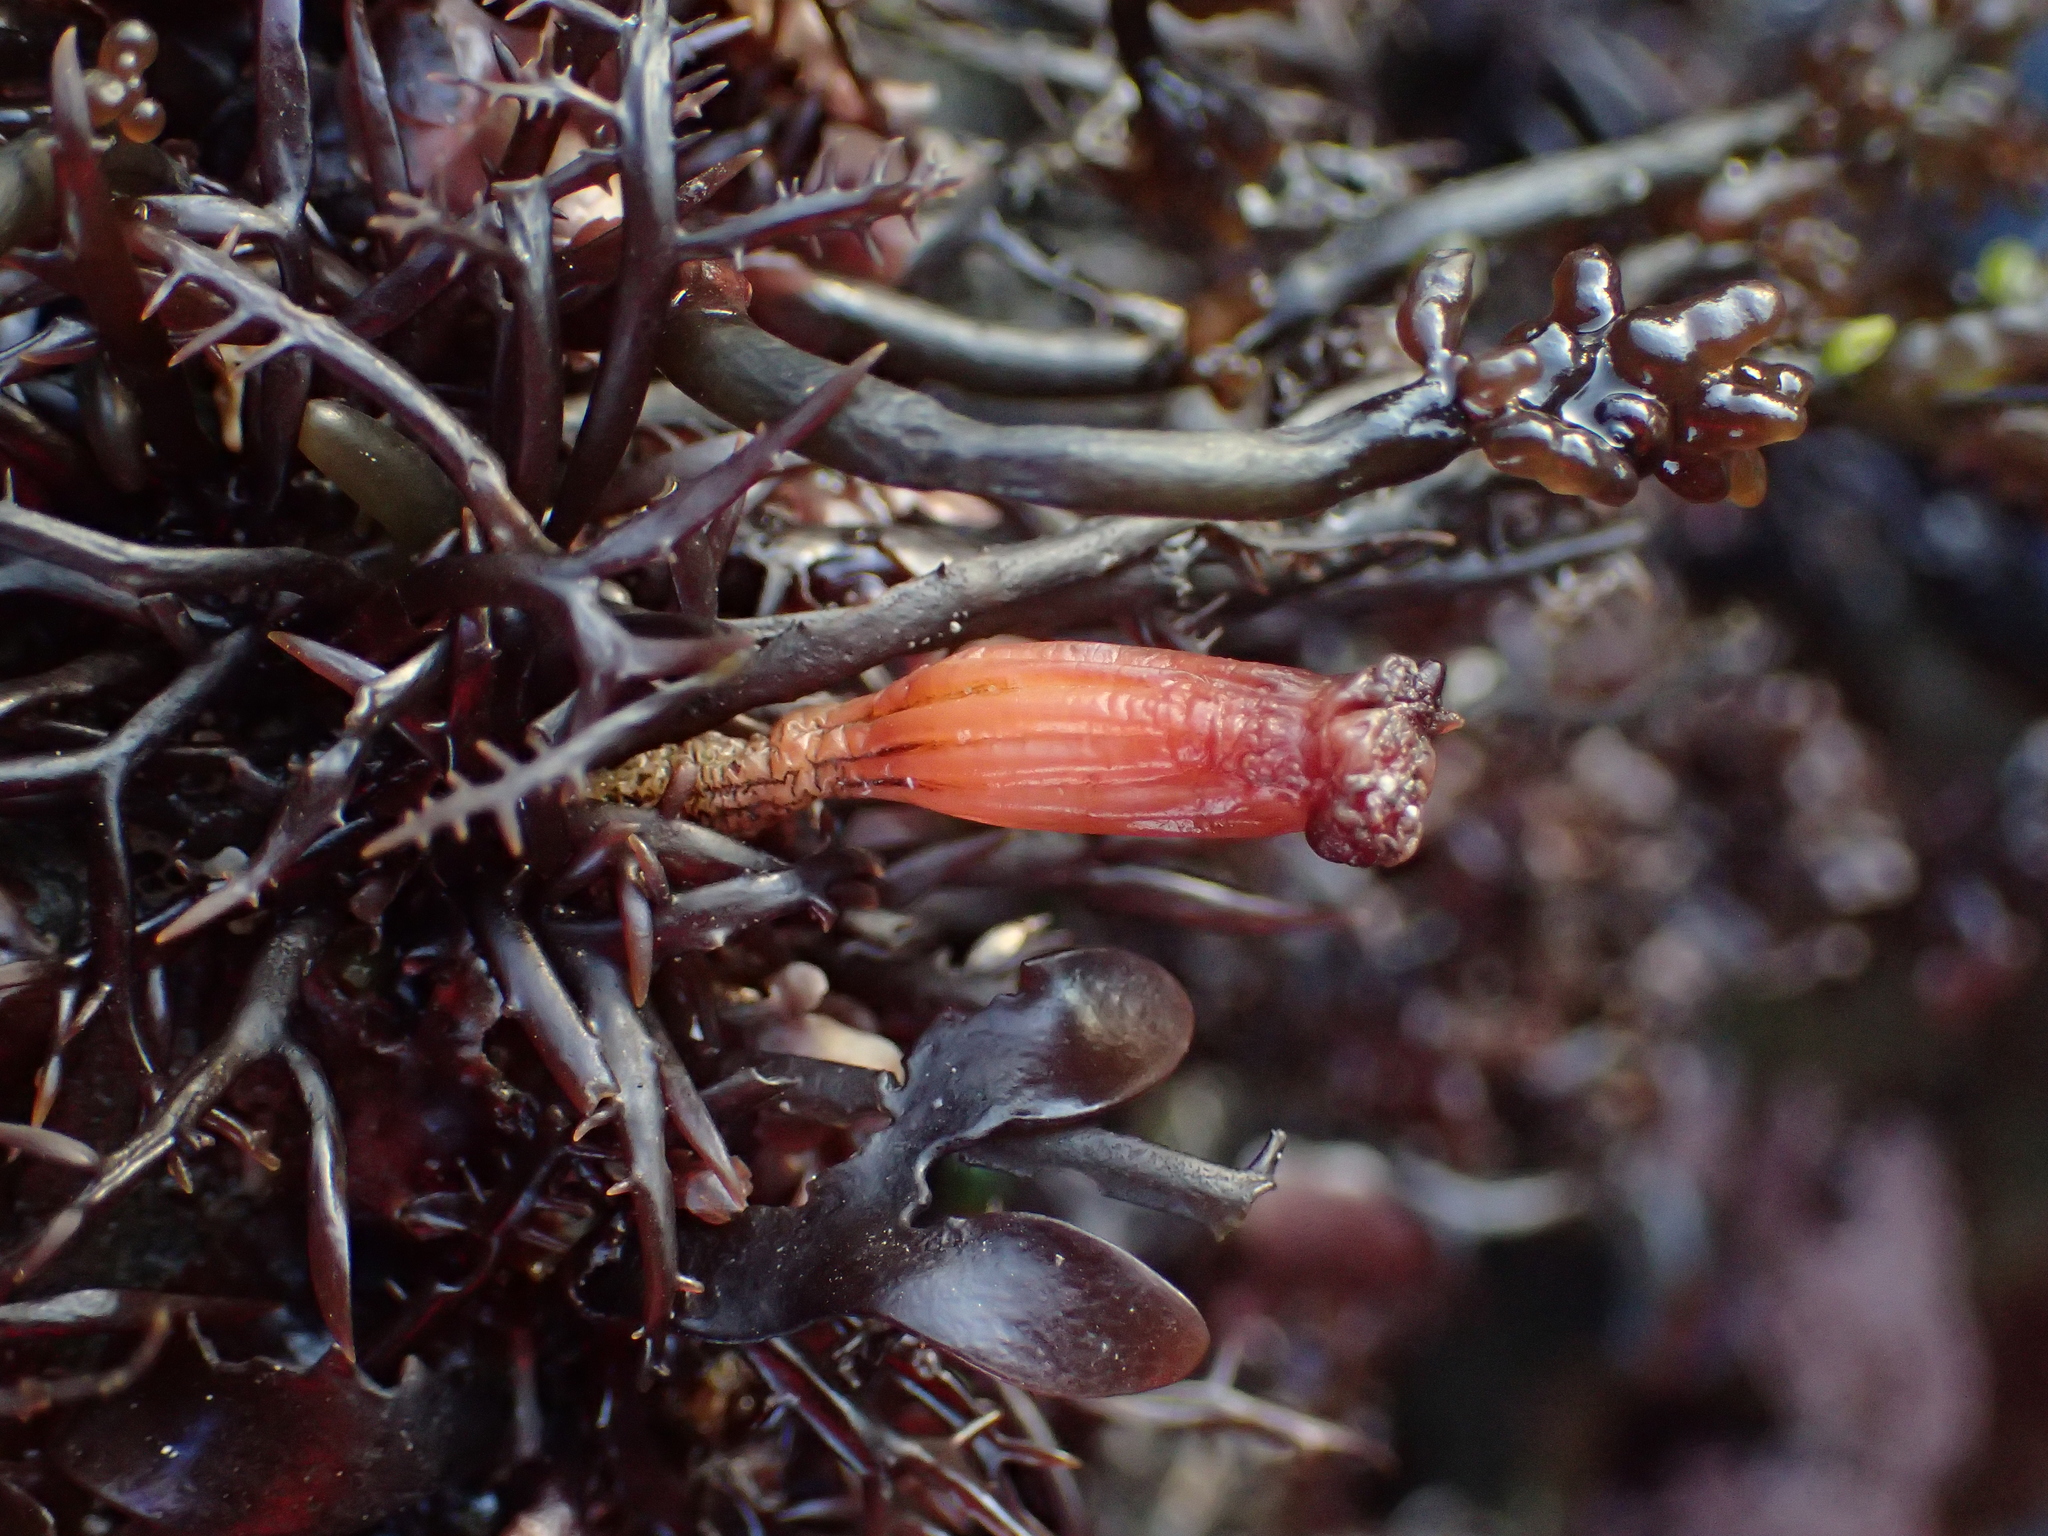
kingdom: Animalia
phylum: Chordata
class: Ascidiacea
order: Stolidobranchia
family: Styelidae
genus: Styela
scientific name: Styela montereyensis
